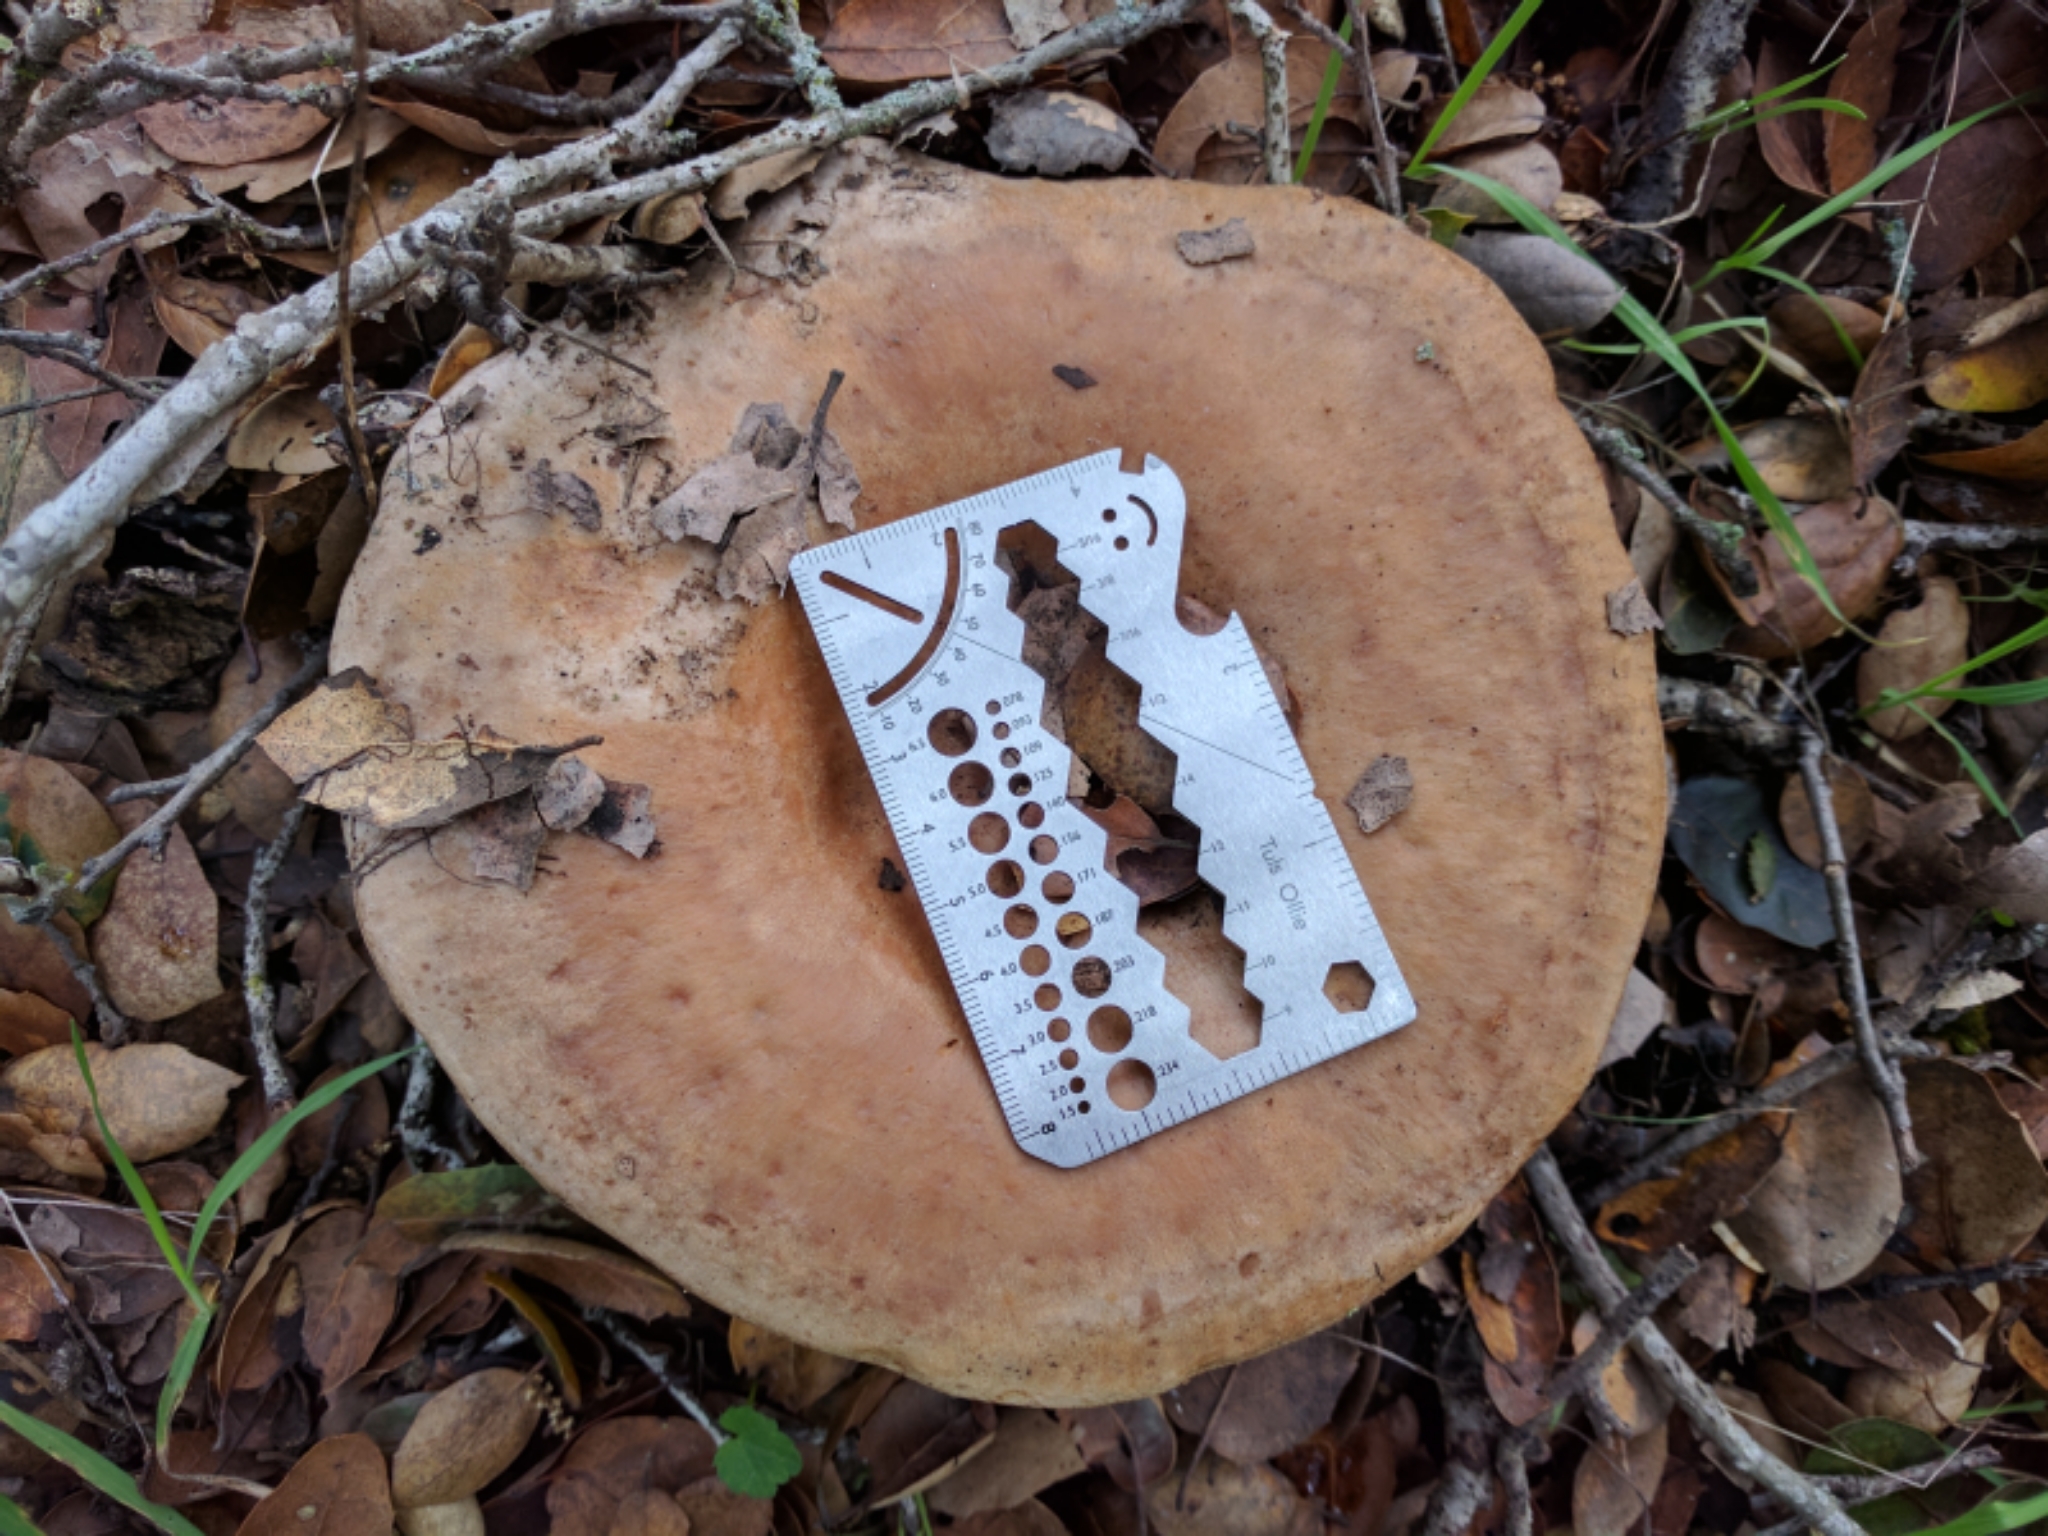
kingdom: Fungi
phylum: Basidiomycota
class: Agaricomycetes
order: Russulales
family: Russulaceae
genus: Lactarius
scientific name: Lactarius argillaceifolius
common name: Clay-gilled milkcap
